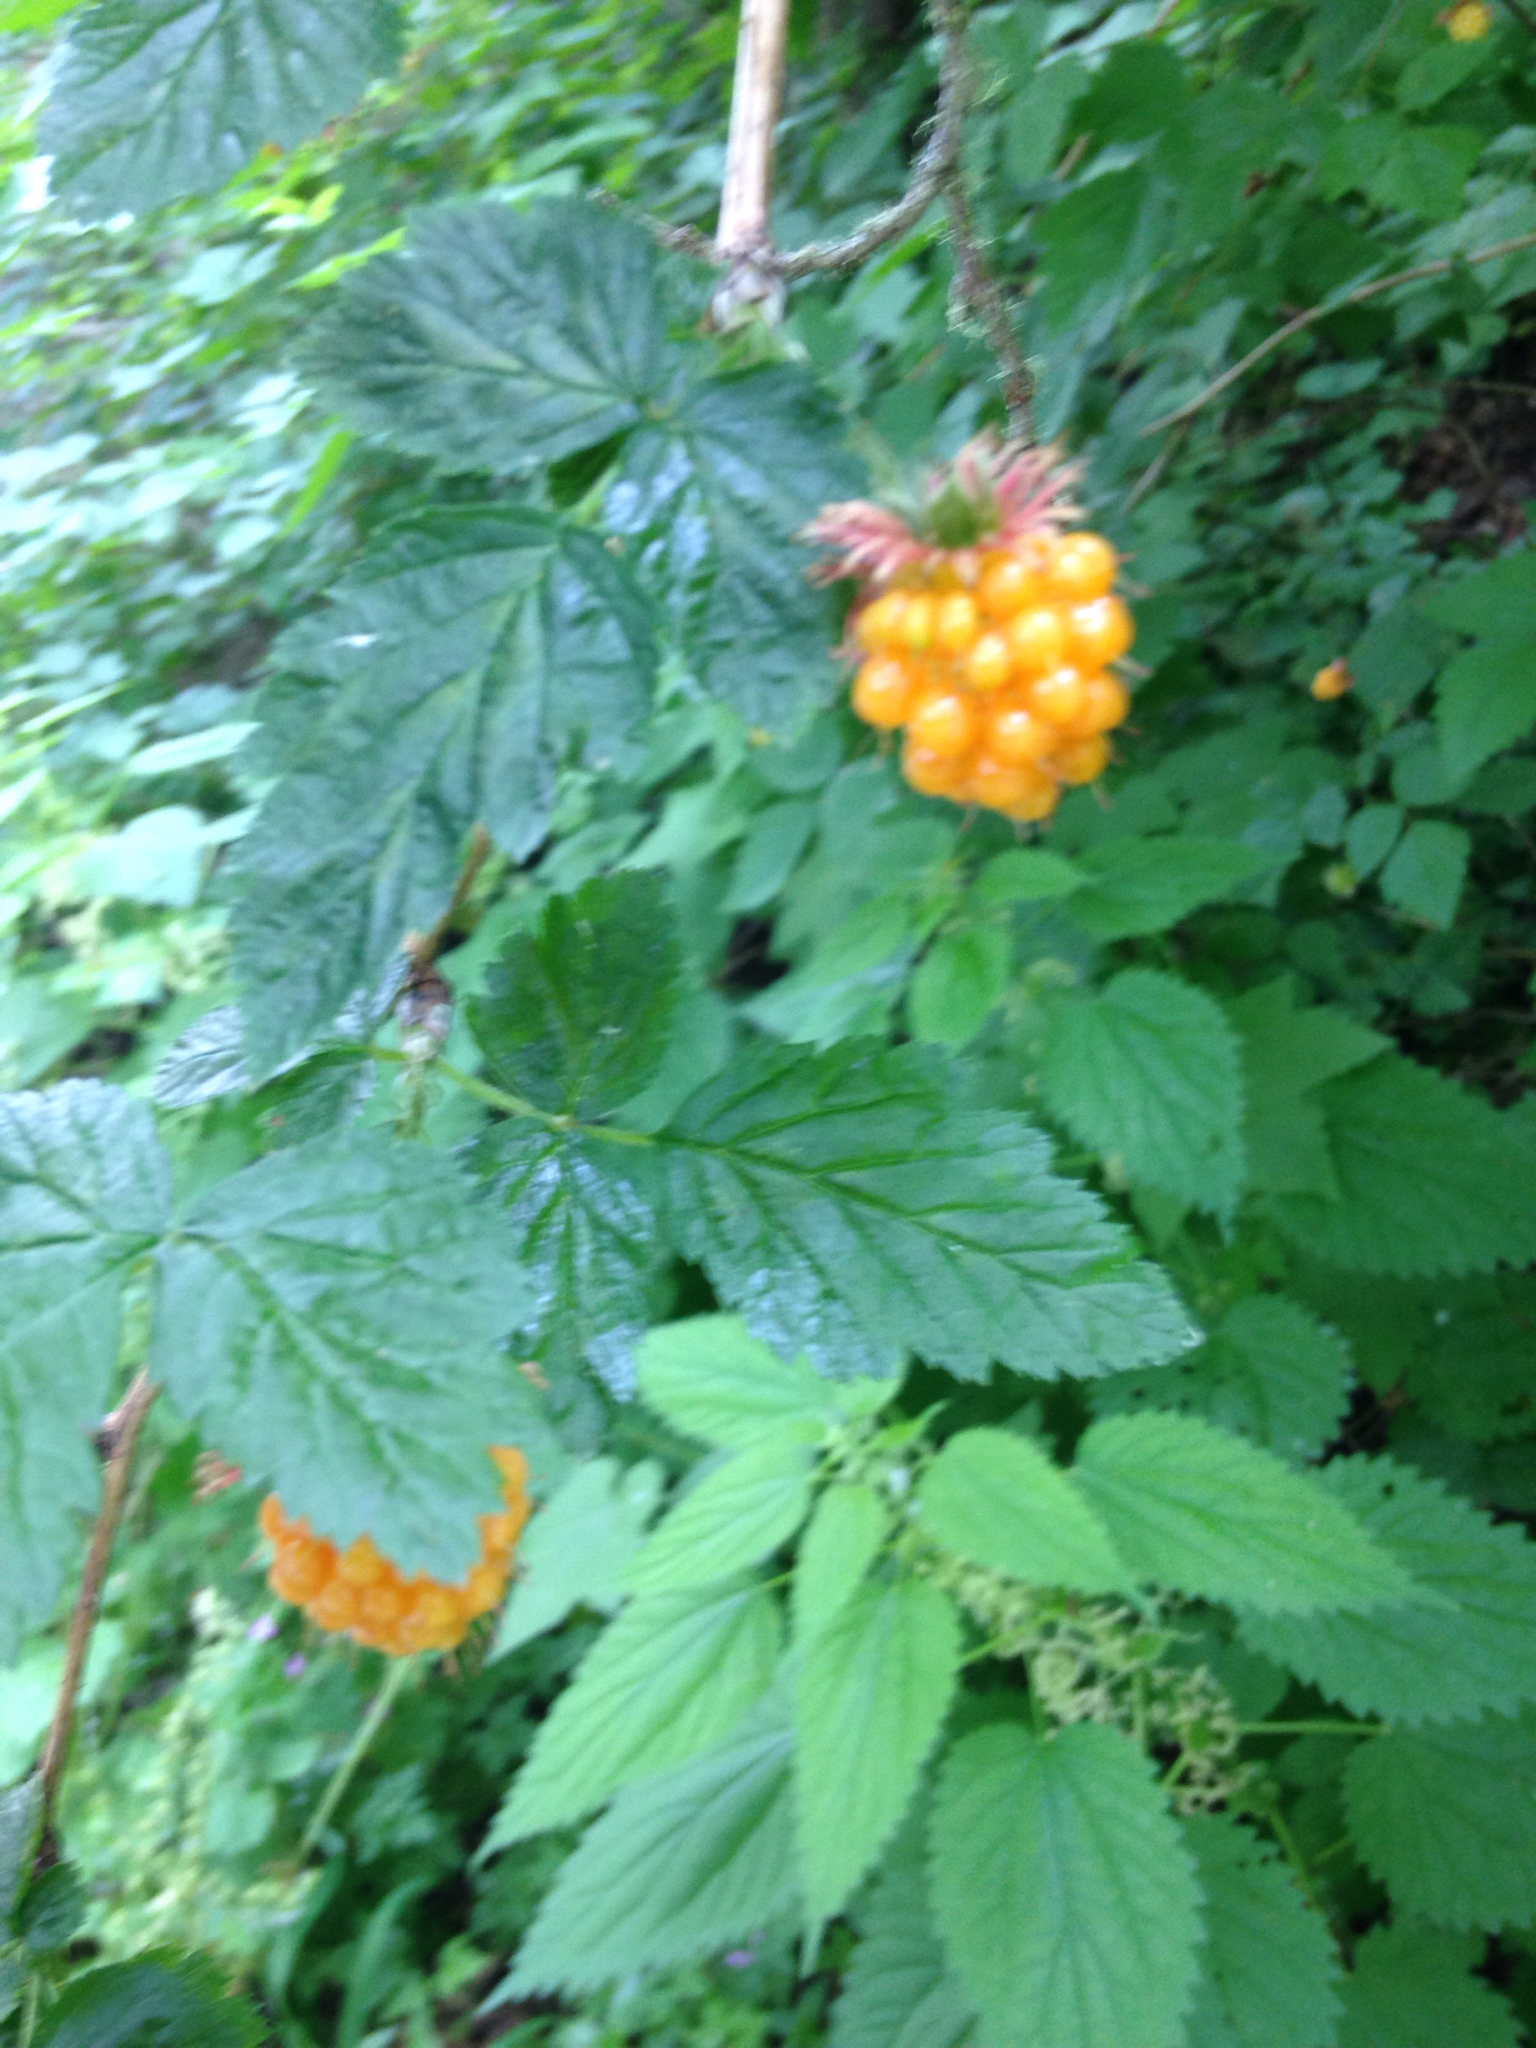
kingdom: Plantae
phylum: Tracheophyta
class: Magnoliopsida
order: Rosales
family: Rosaceae
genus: Rubus
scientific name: Rubus spectabilis
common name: Salmonberry
